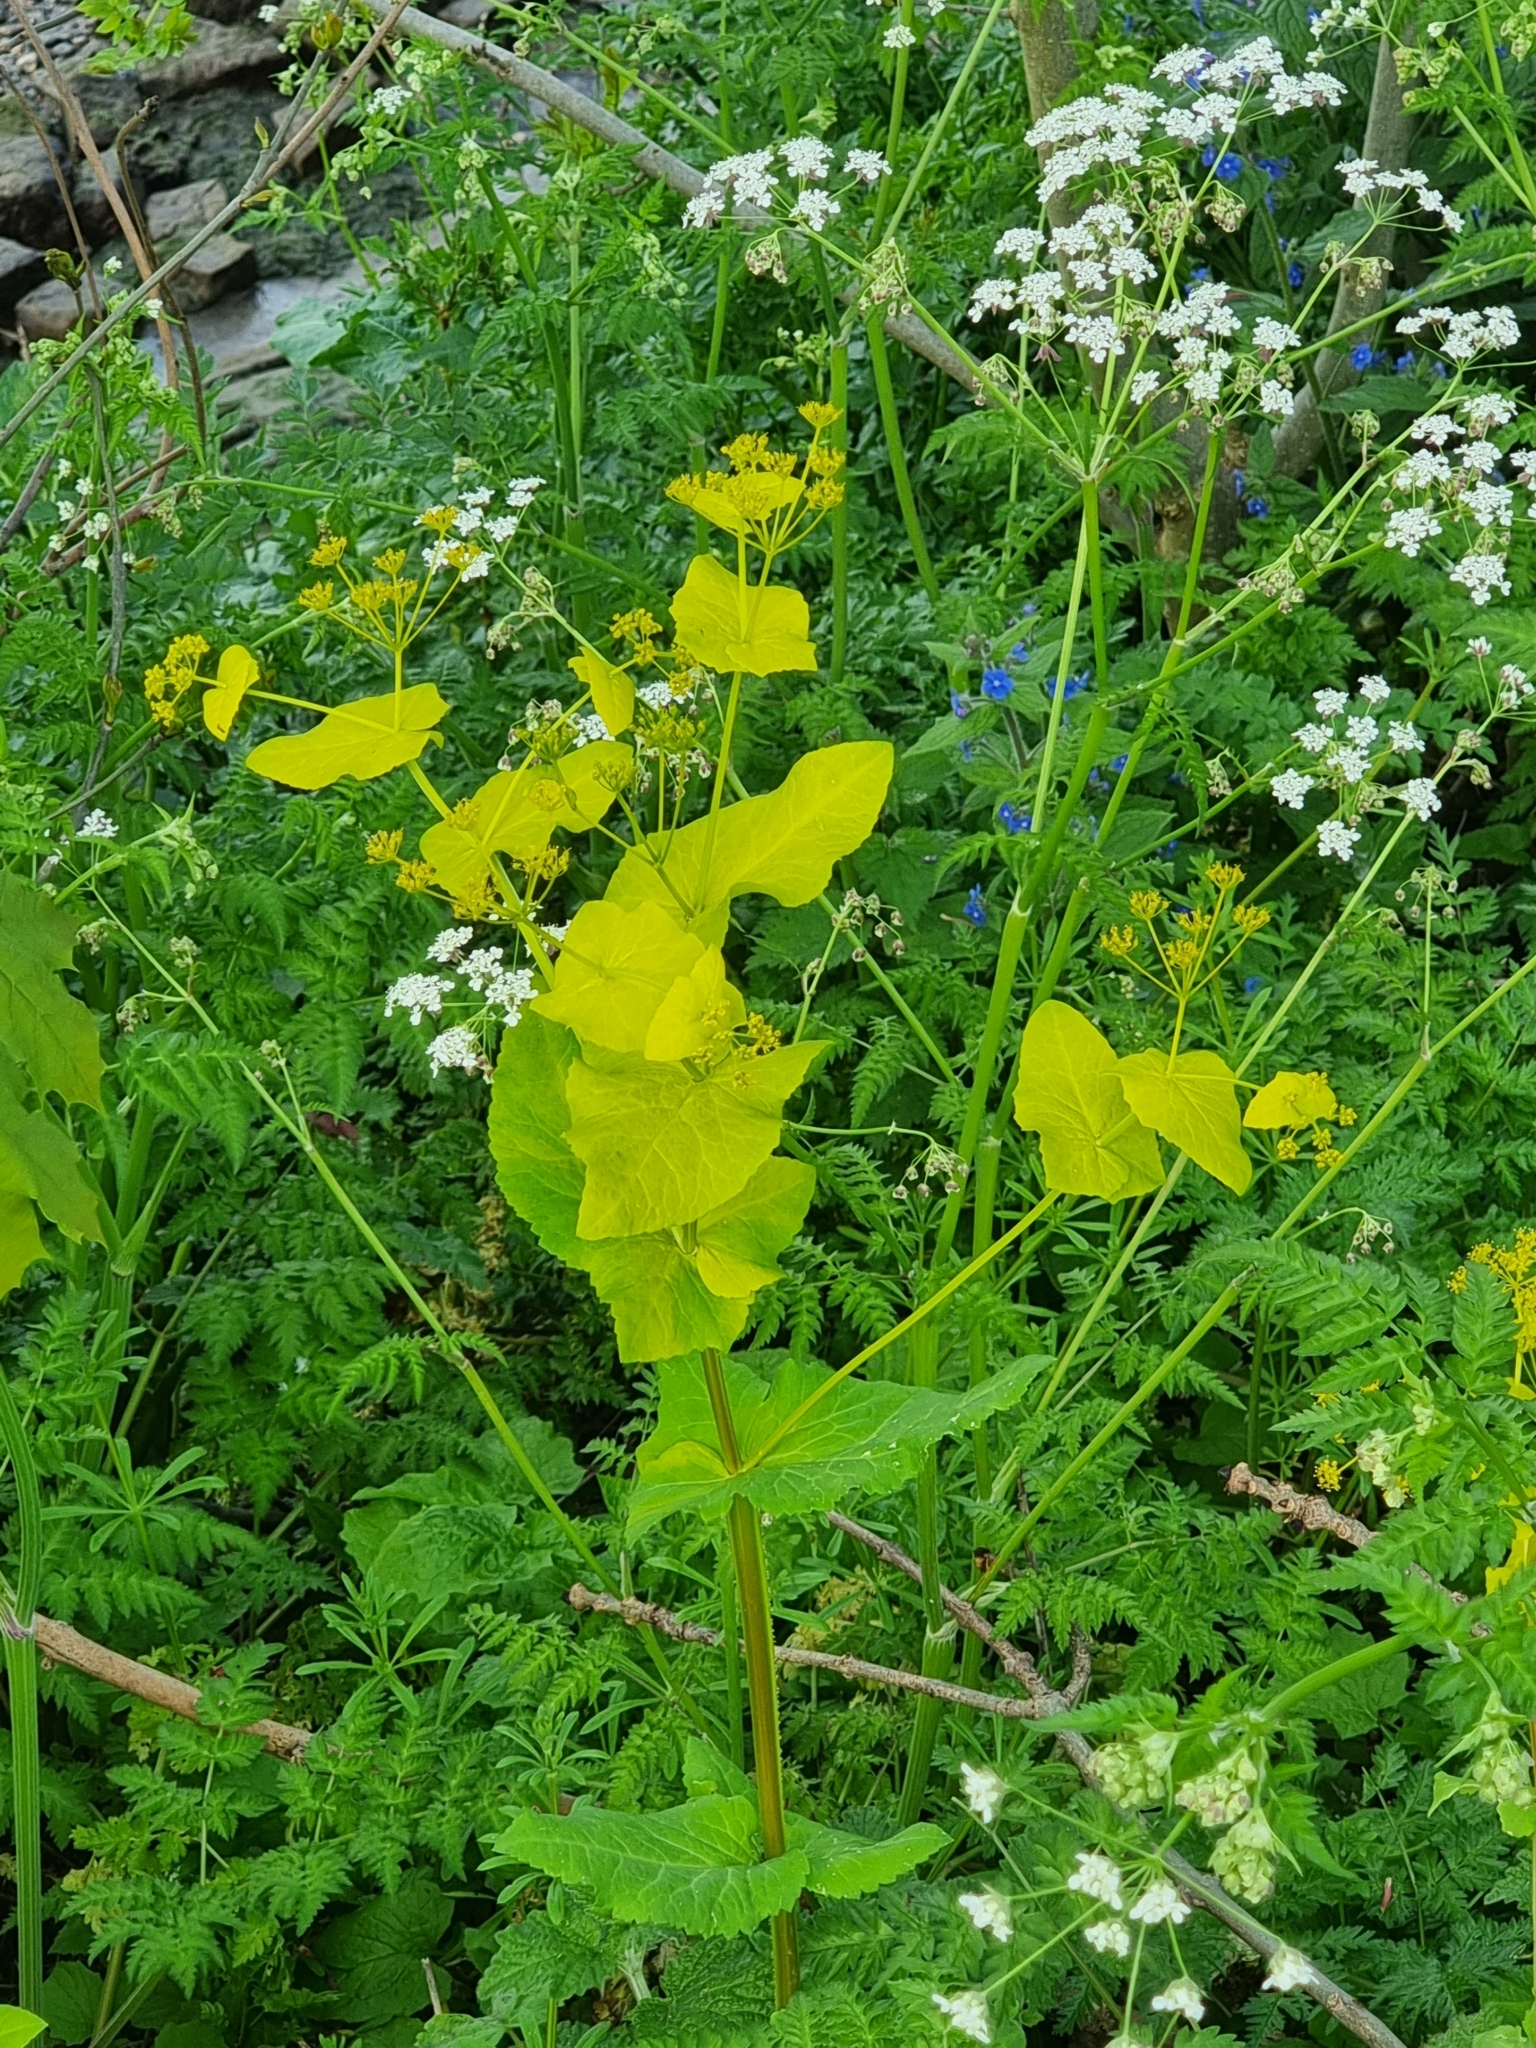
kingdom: Plantae
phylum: Tracheophyta
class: Magnoliopsida
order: Apiales
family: Apiaceae
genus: Smyrnium
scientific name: Smyrnium perfoliatum
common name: Perfoliate alexanders
